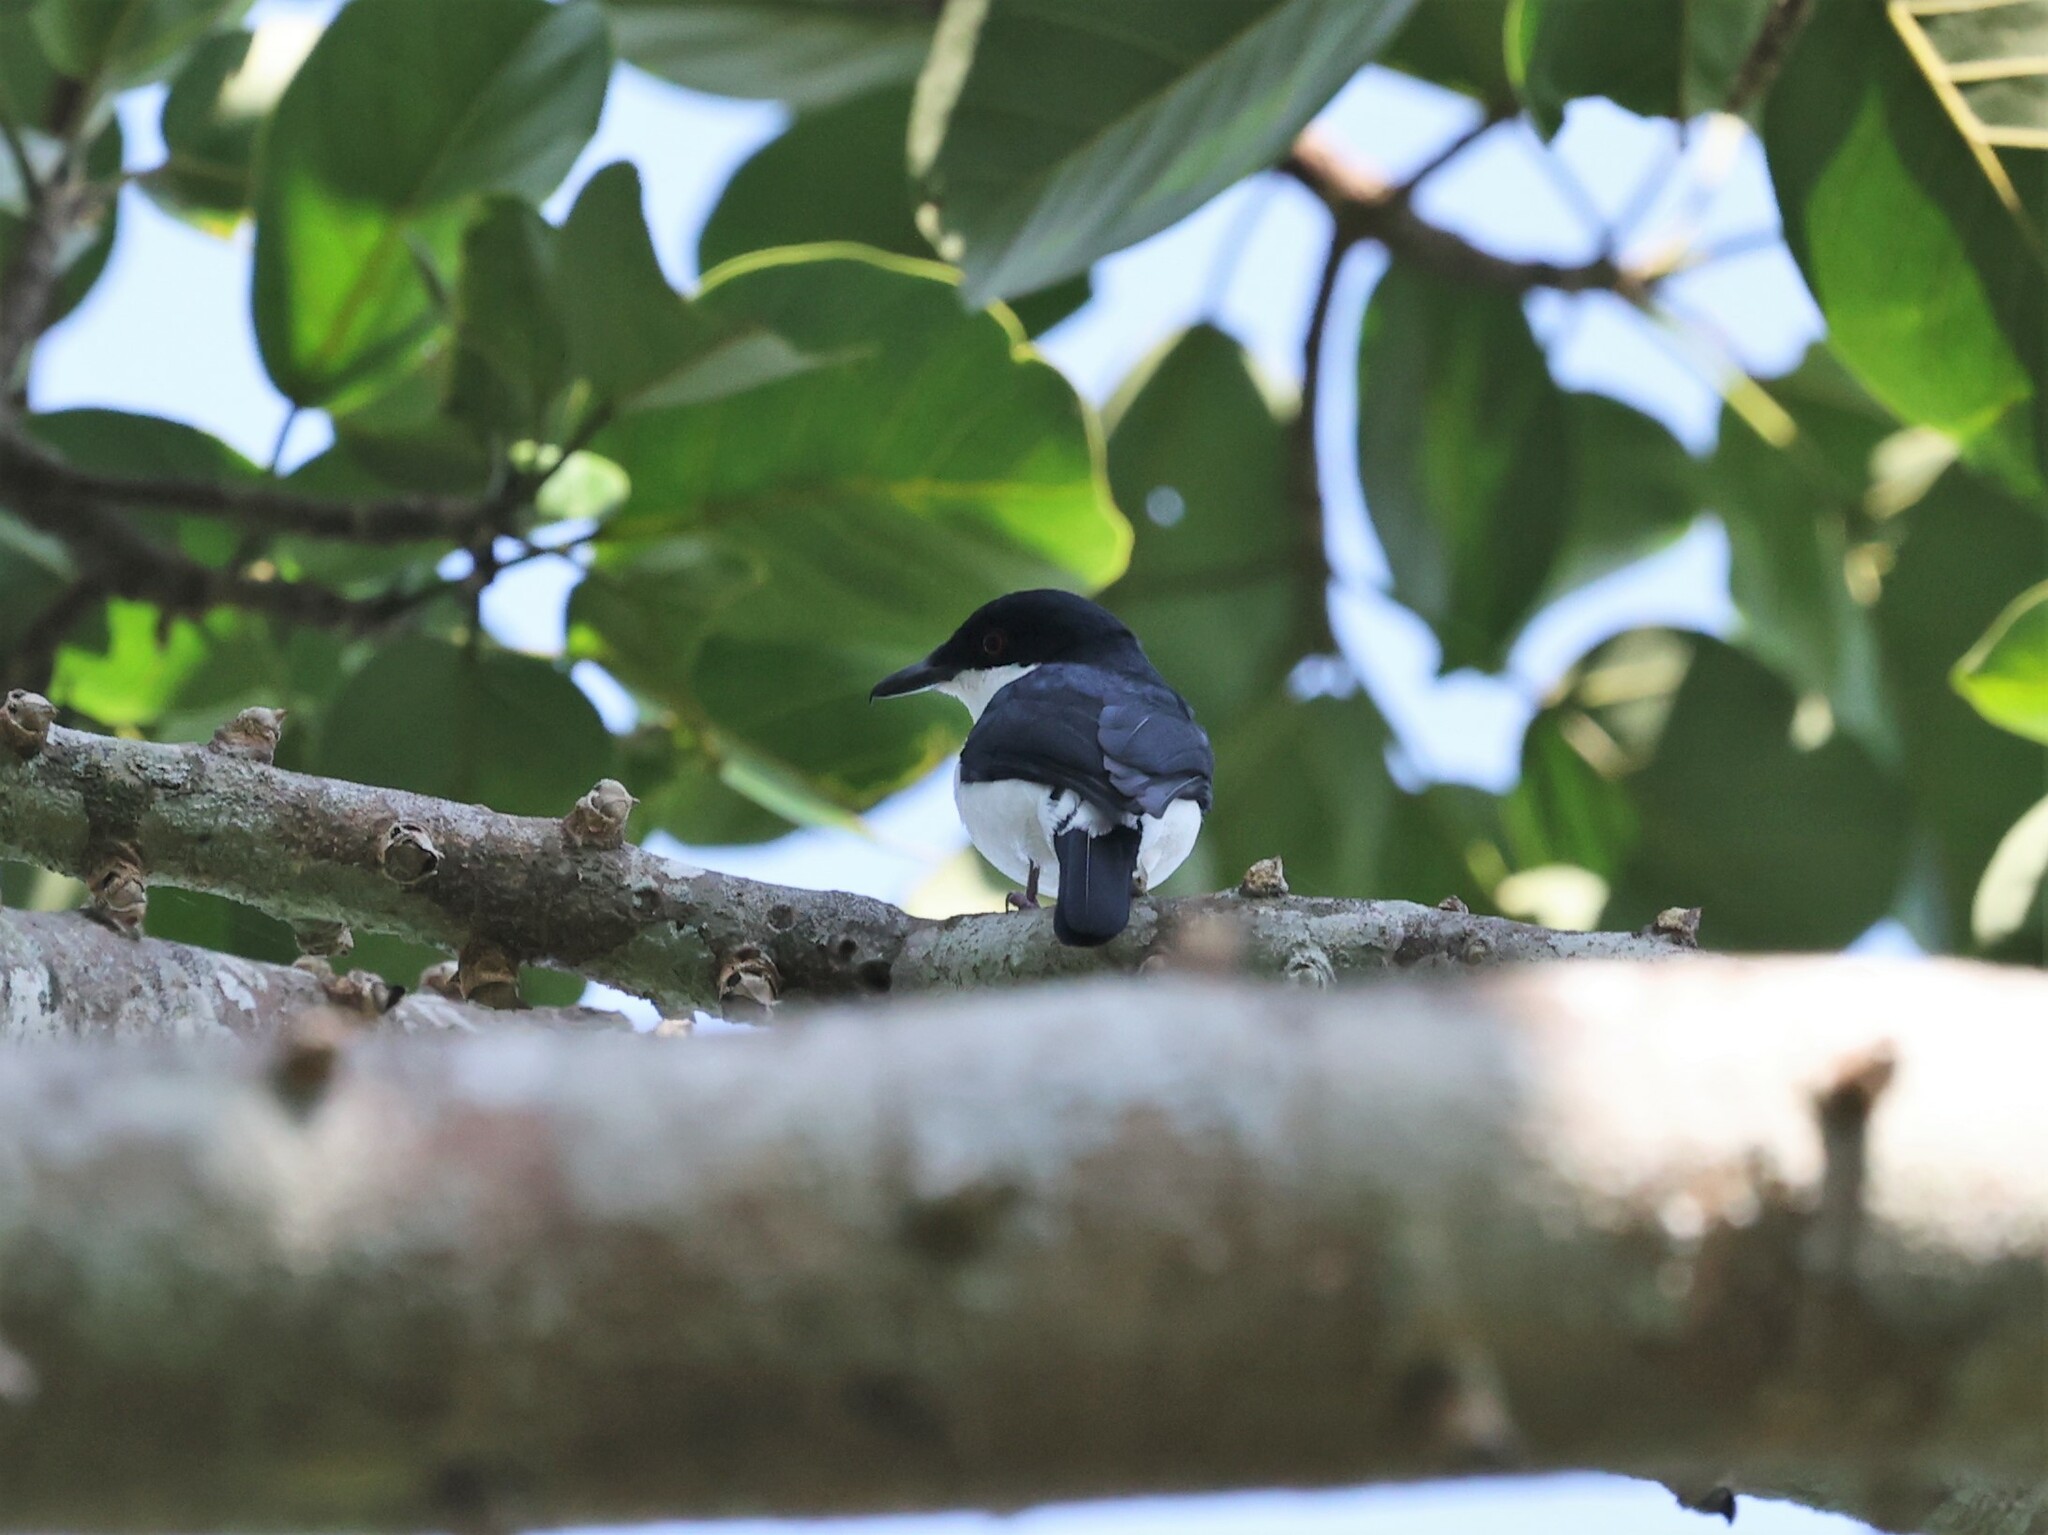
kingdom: Animalia
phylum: Chordata
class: Aves
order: Passeriformes
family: Platysteiridae
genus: Megabyas
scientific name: Megabyas flammulatus
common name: African shrike-flycatcher
